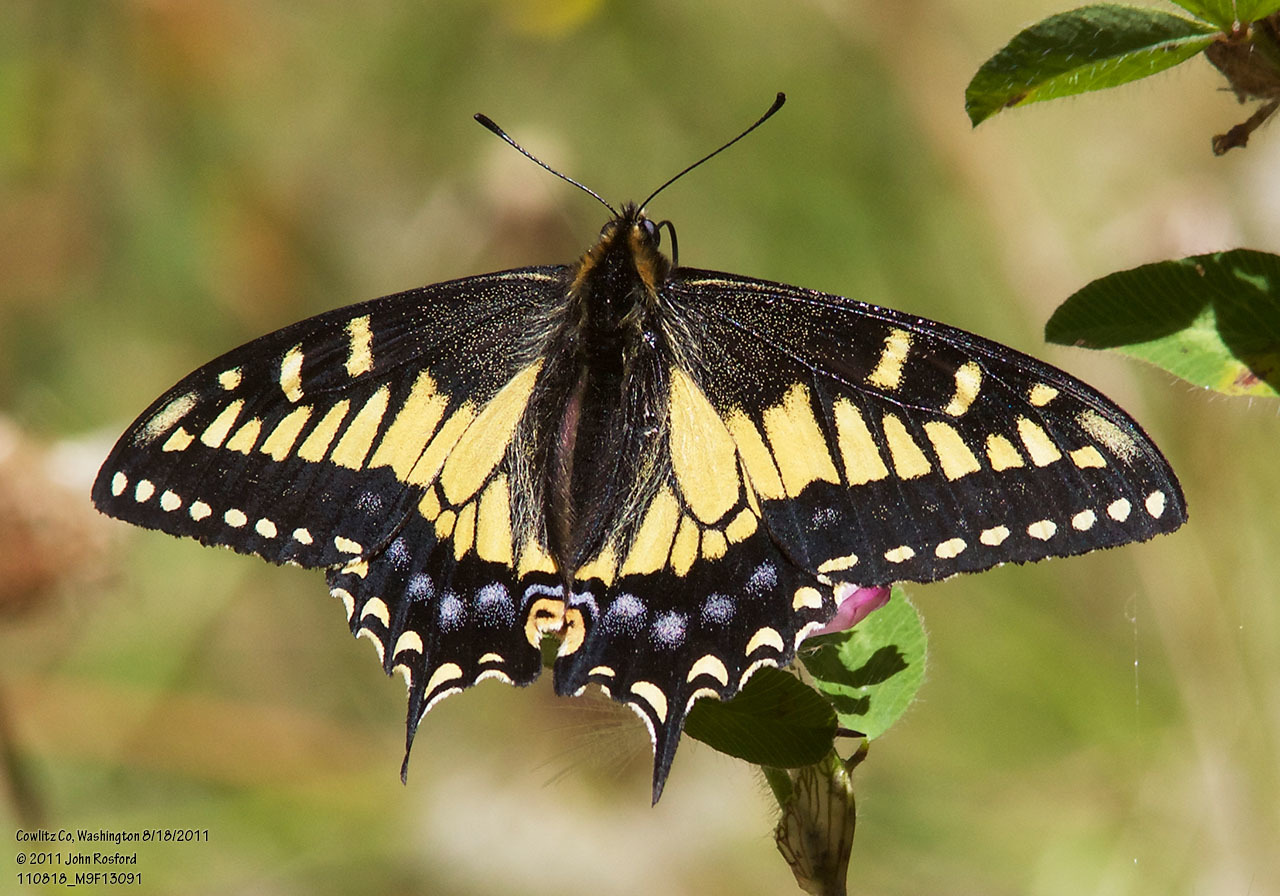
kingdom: Animalia
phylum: Arthropoda
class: Insecta
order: Lepidoptera
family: Papilionidae
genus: Papilio
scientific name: Papilio zelicaon
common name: Anise swallowtail
